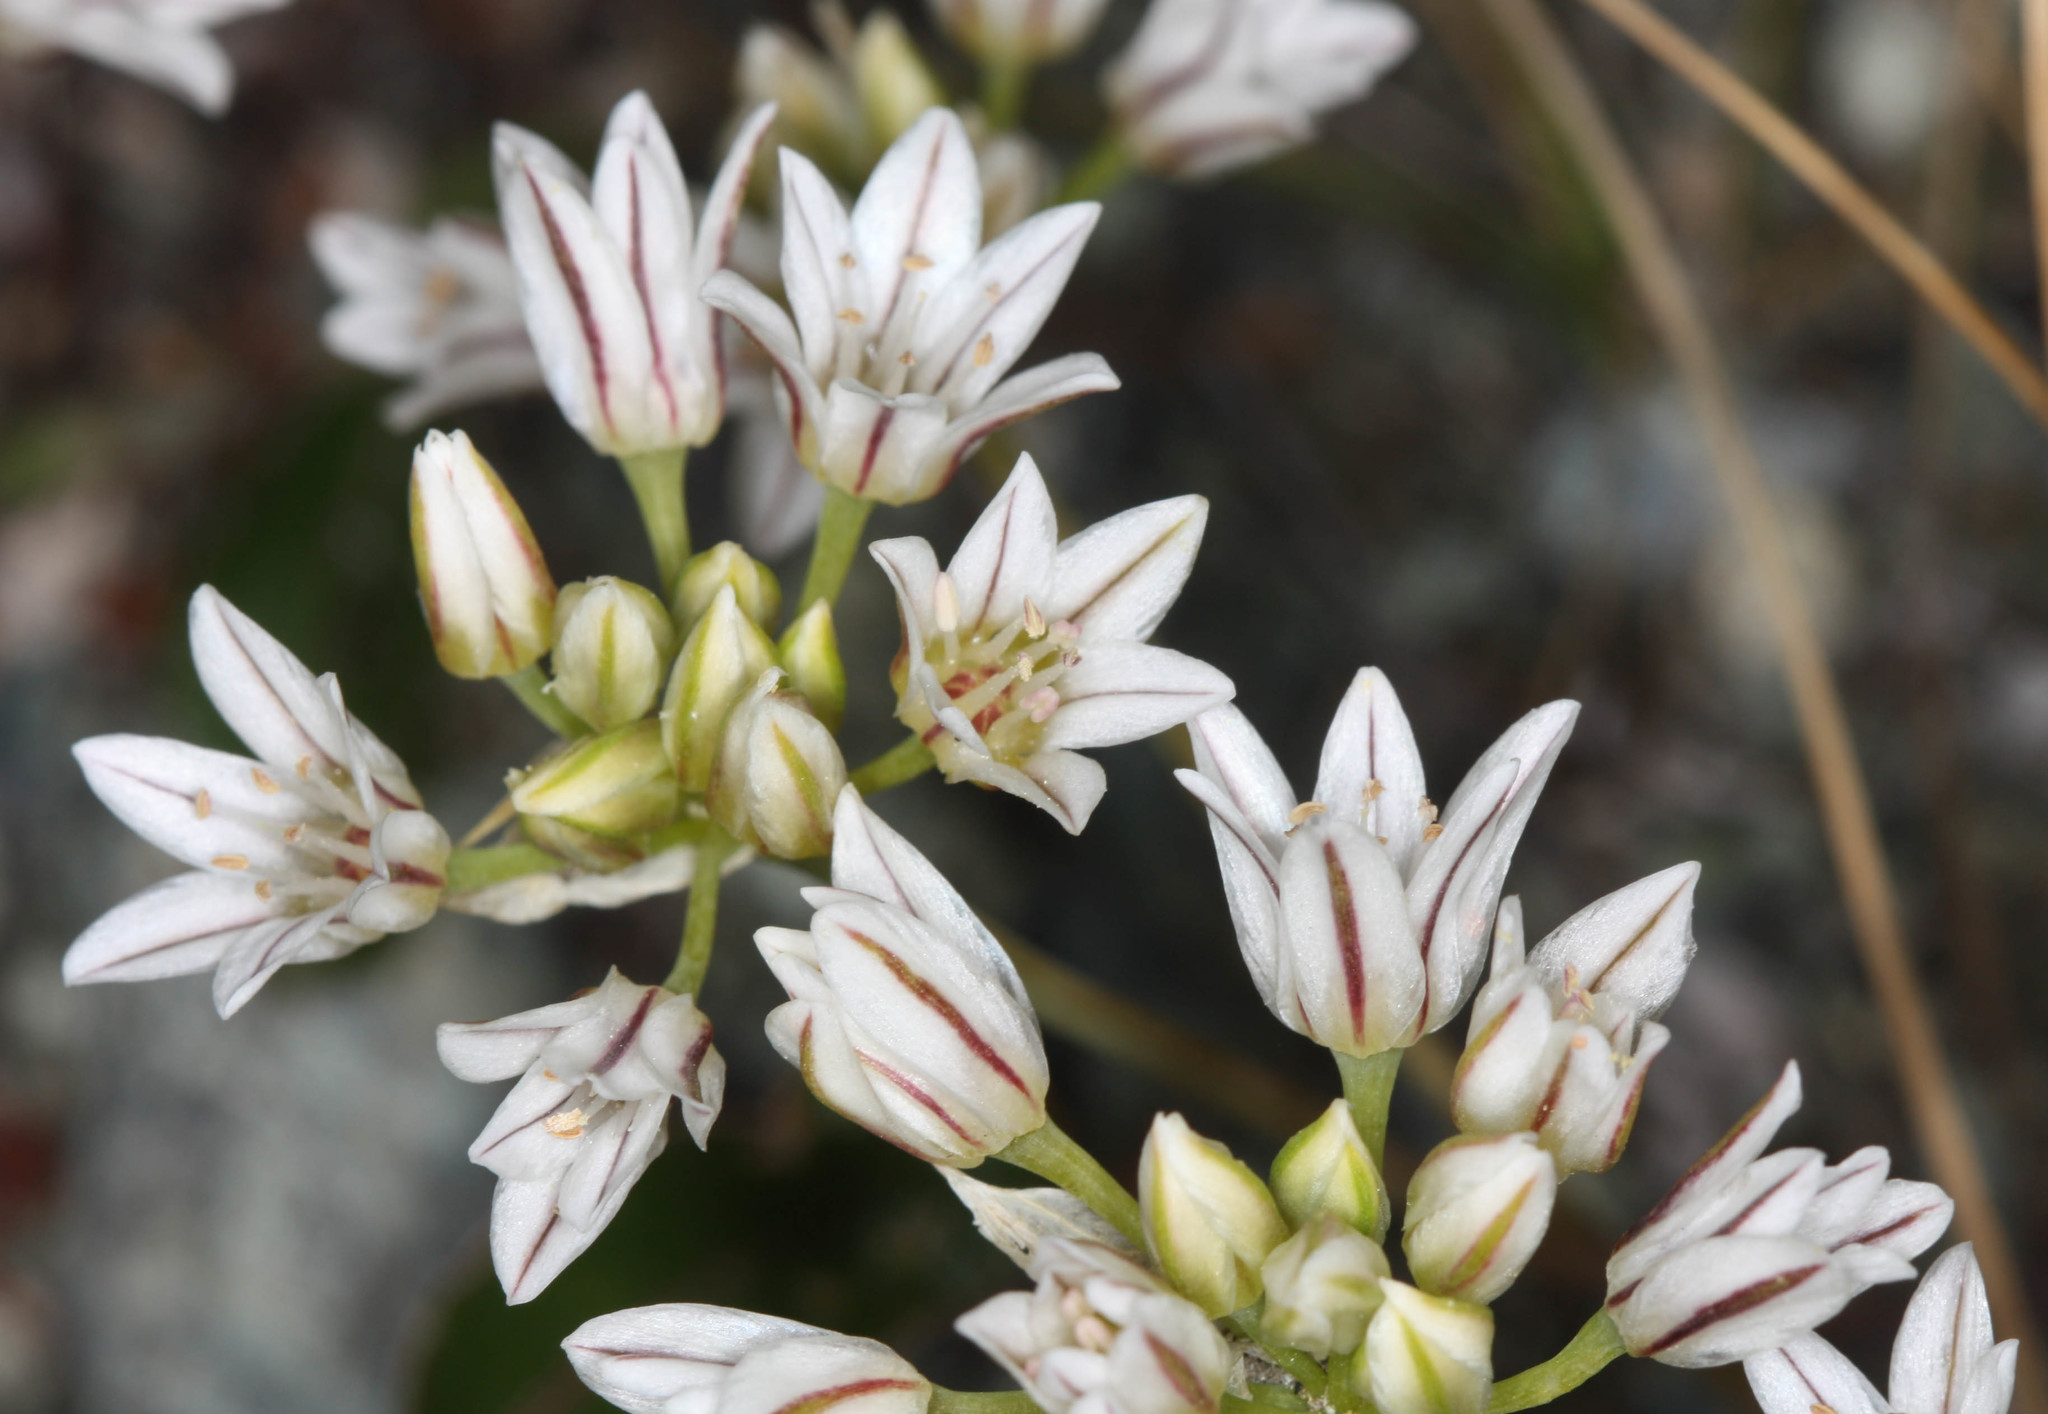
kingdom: Plantae
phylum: Tracheophyta
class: Liliopsida
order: Asparagales
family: Amaryllidaceae
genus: Allium
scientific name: Allium lacunosum
